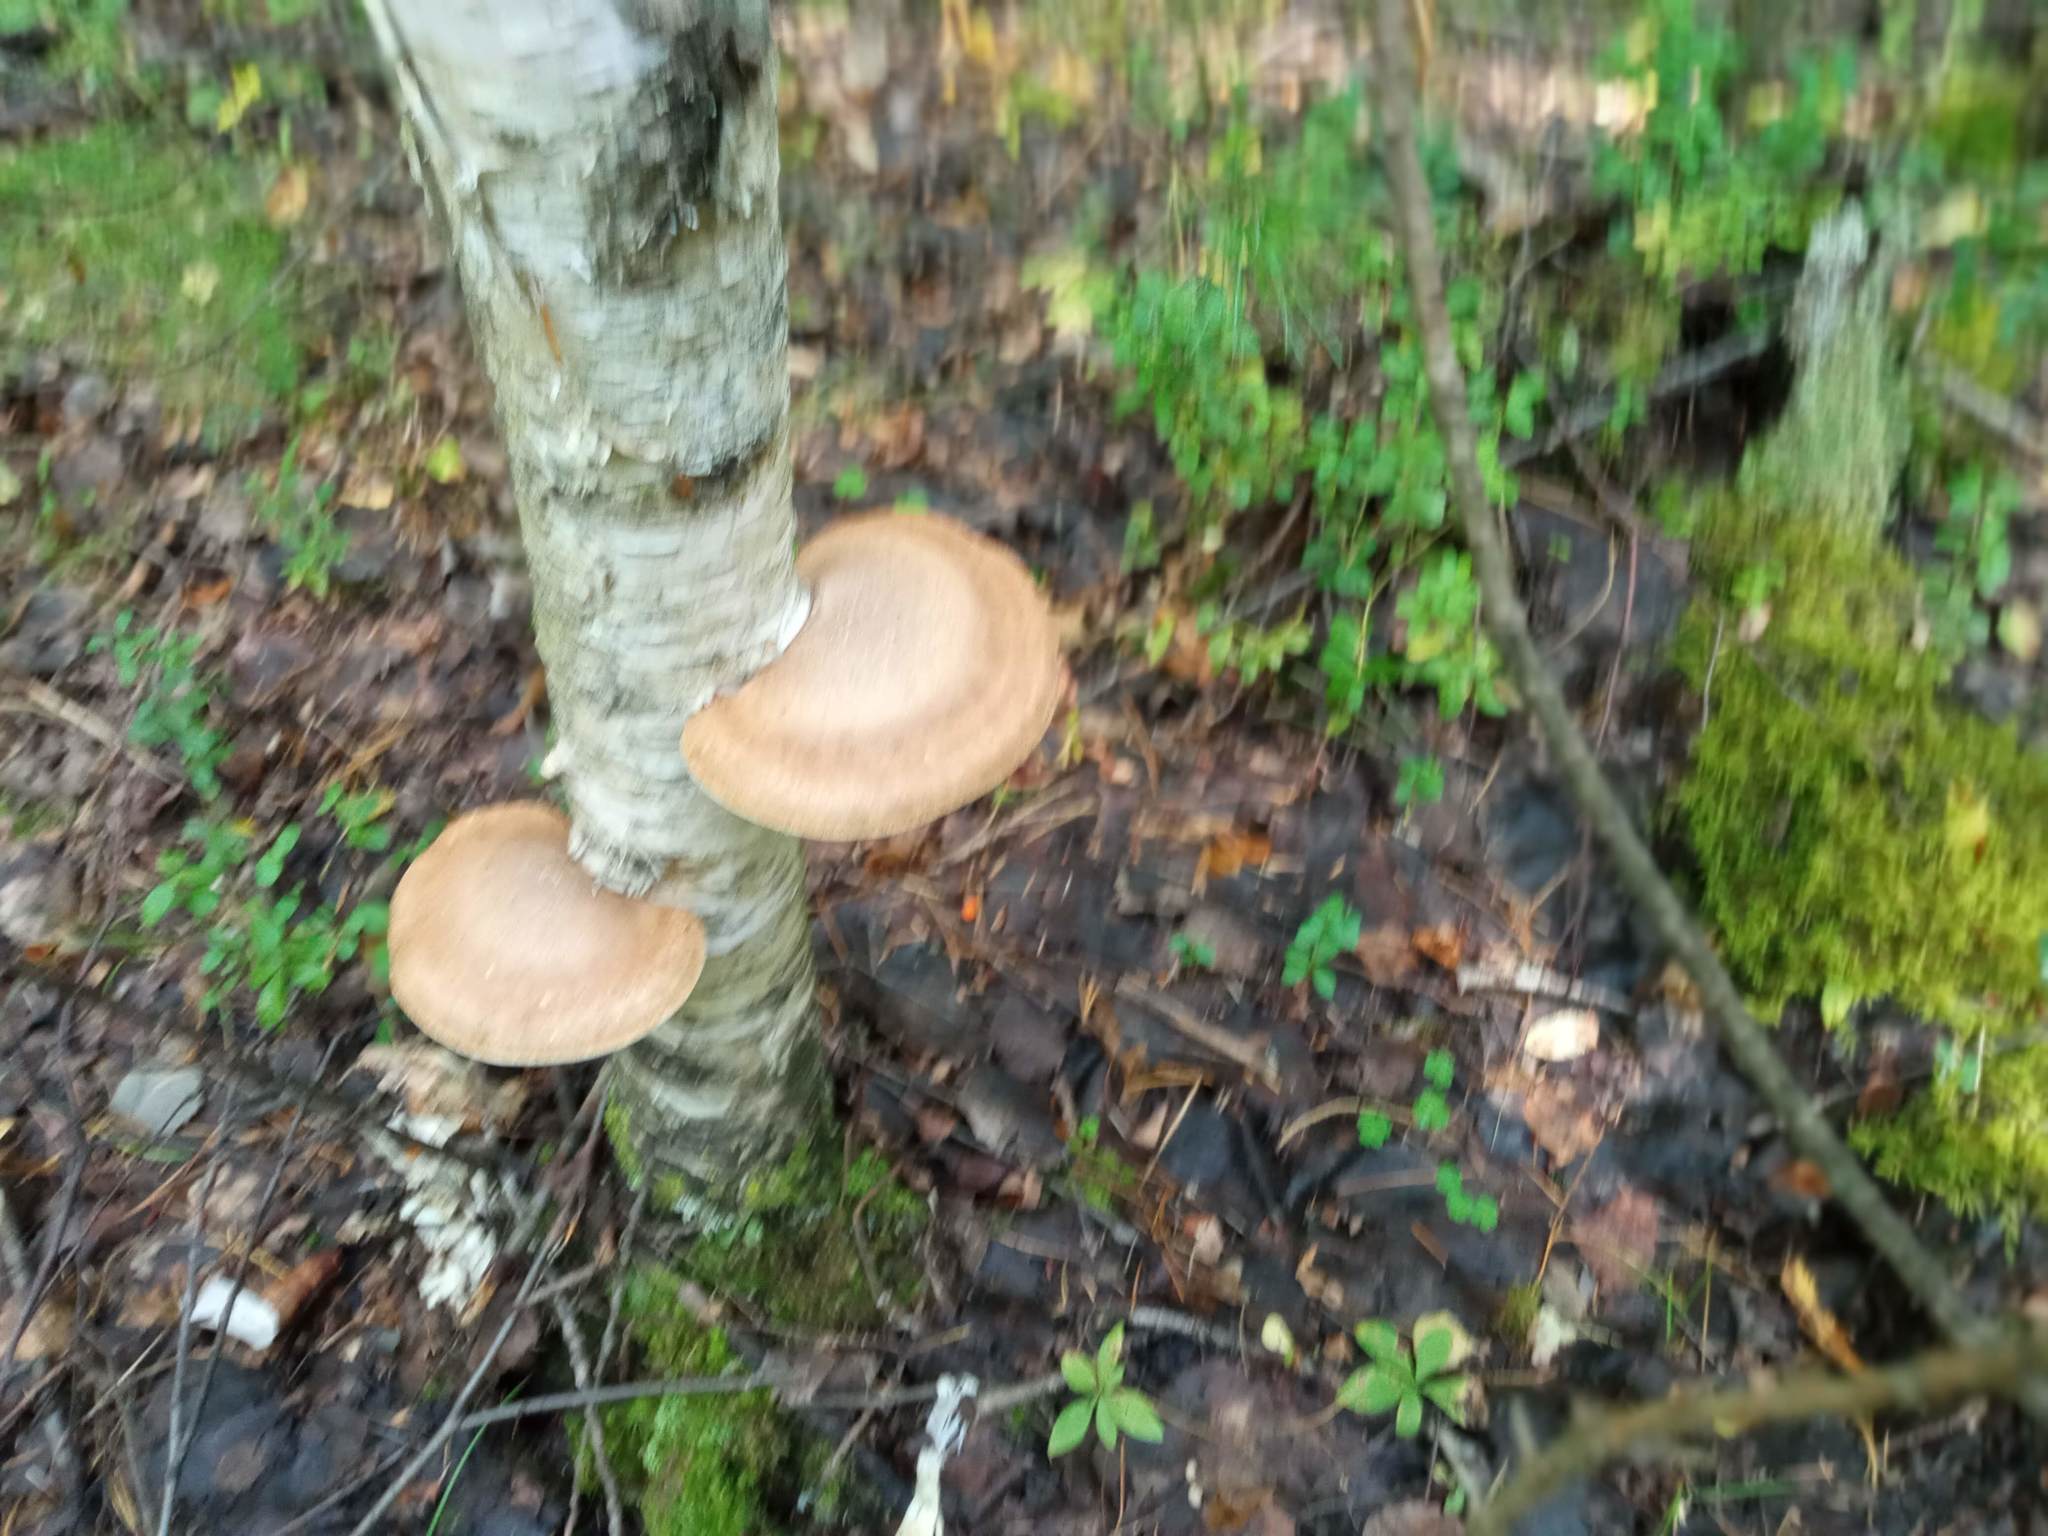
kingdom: Fungi
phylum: Basidiomycota
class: Agaricomycetes
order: Polyporales
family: Fomitopsidaceae
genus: Fomitopsis
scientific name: Fomitopsis betulina
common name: Birch polypore
